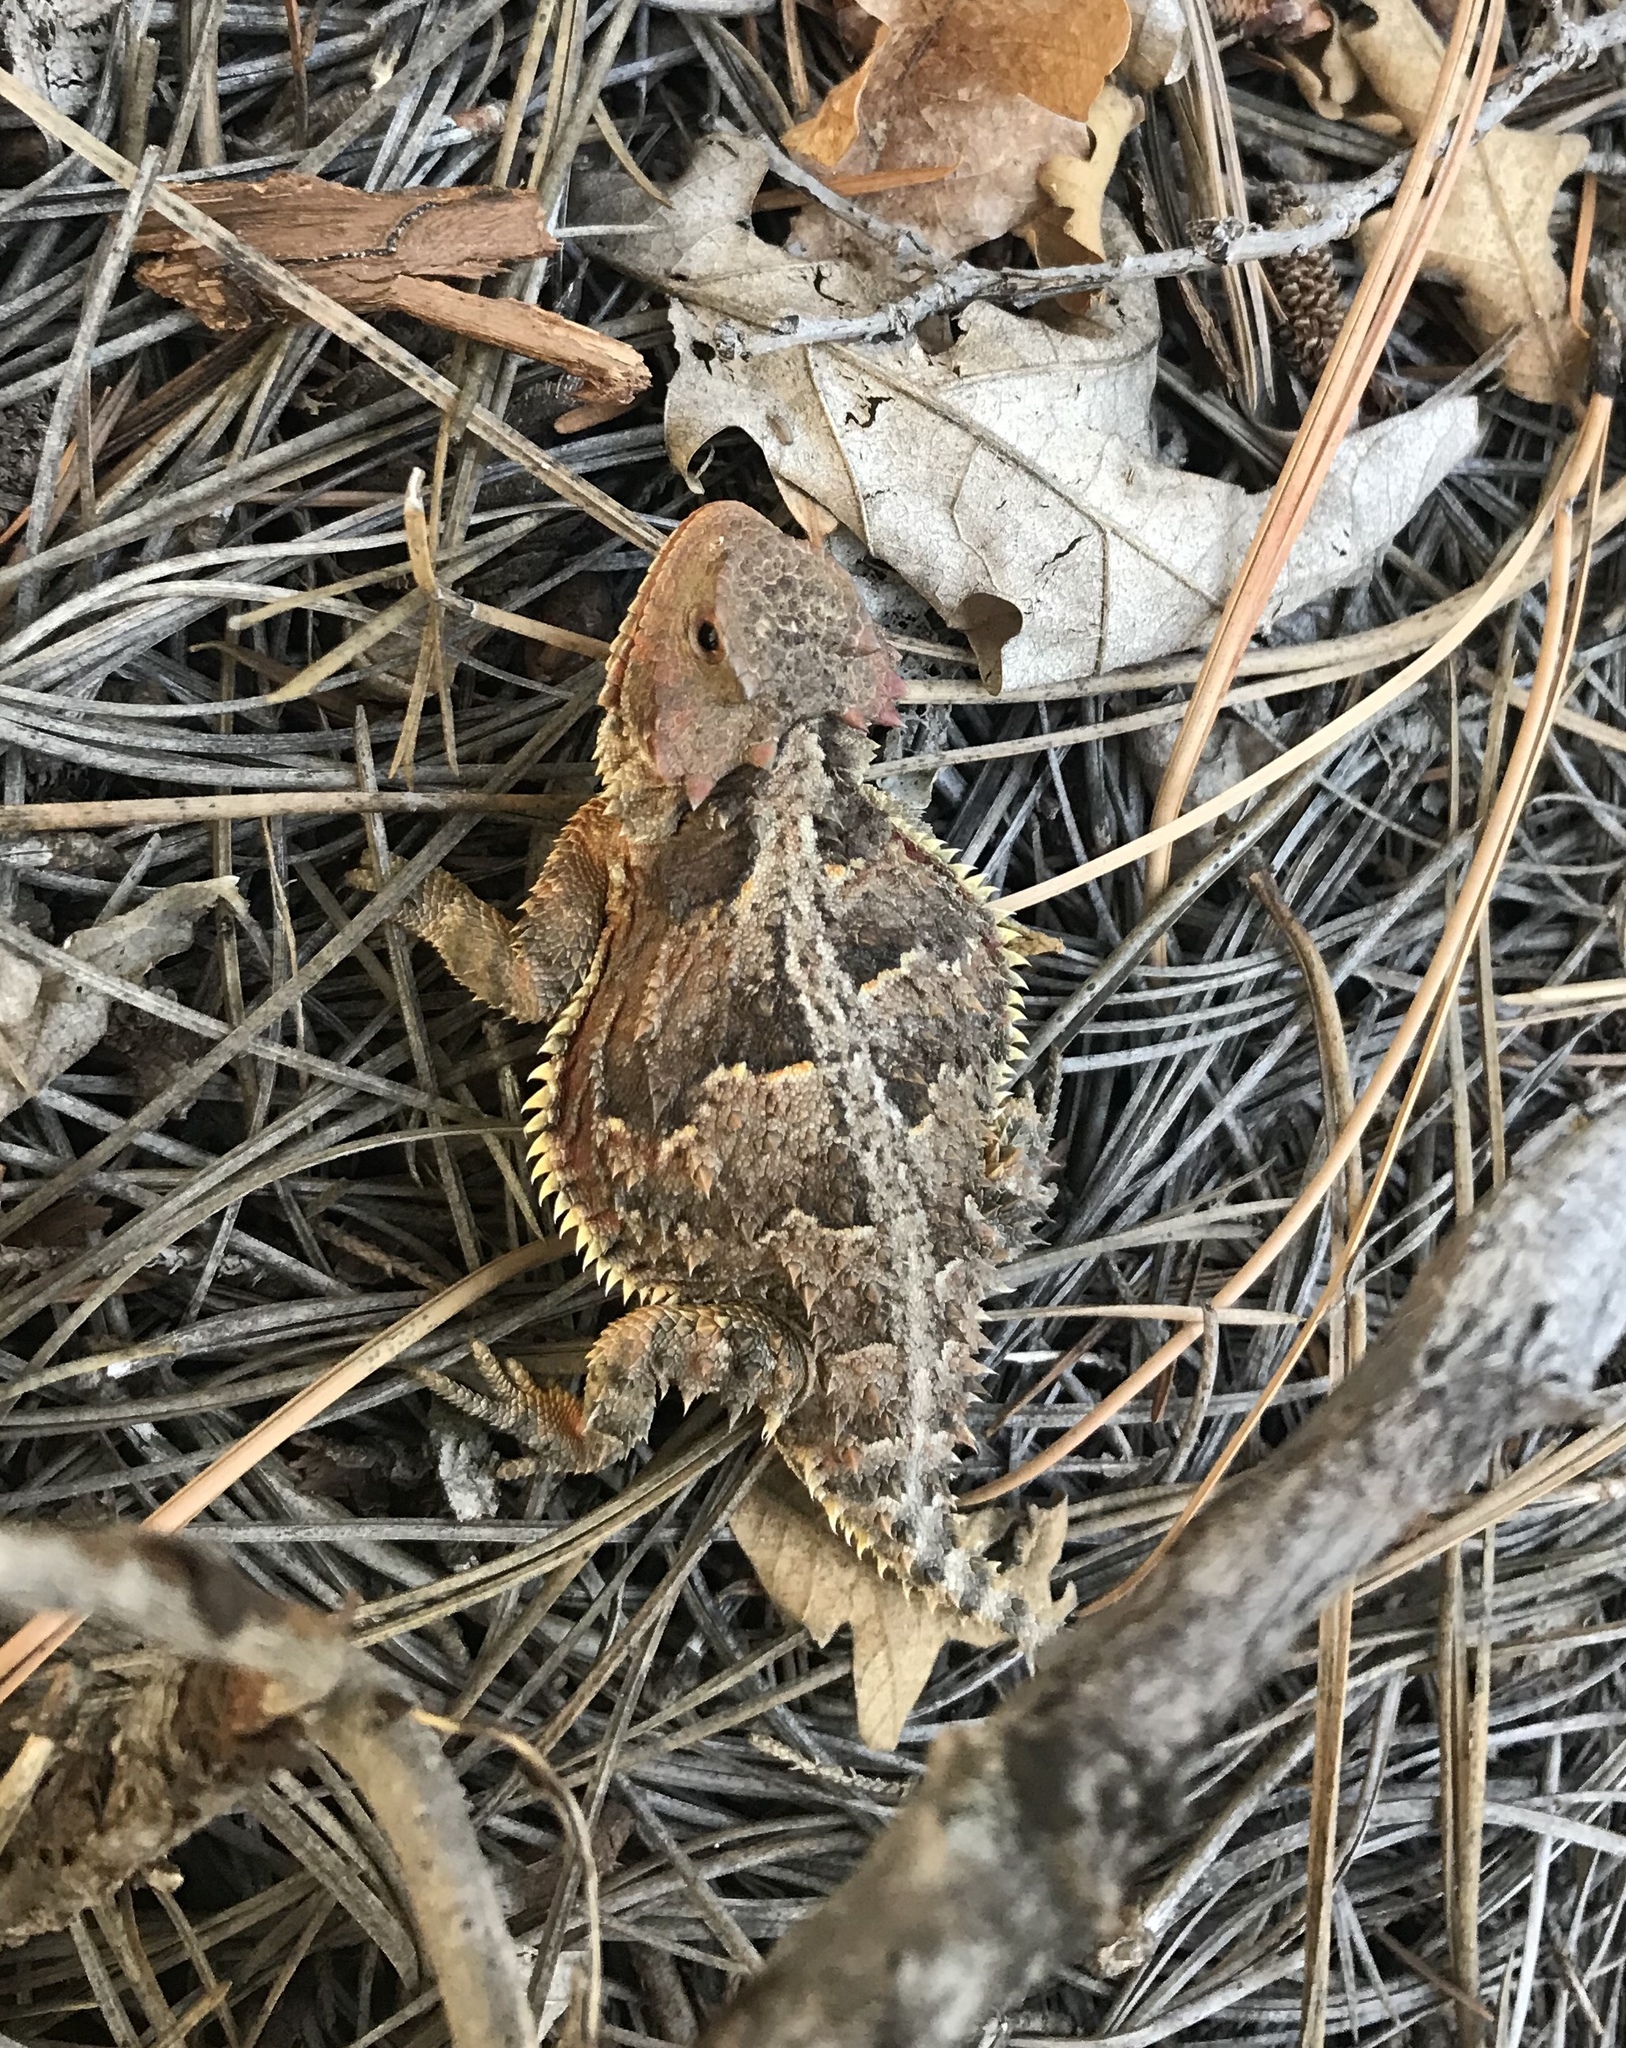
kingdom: Animalia
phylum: Chordata
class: Squamata
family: Phrynosomatidae
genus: Phrynosoma
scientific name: Phrynosoma hernandesi
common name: Greater short-horned lizard
